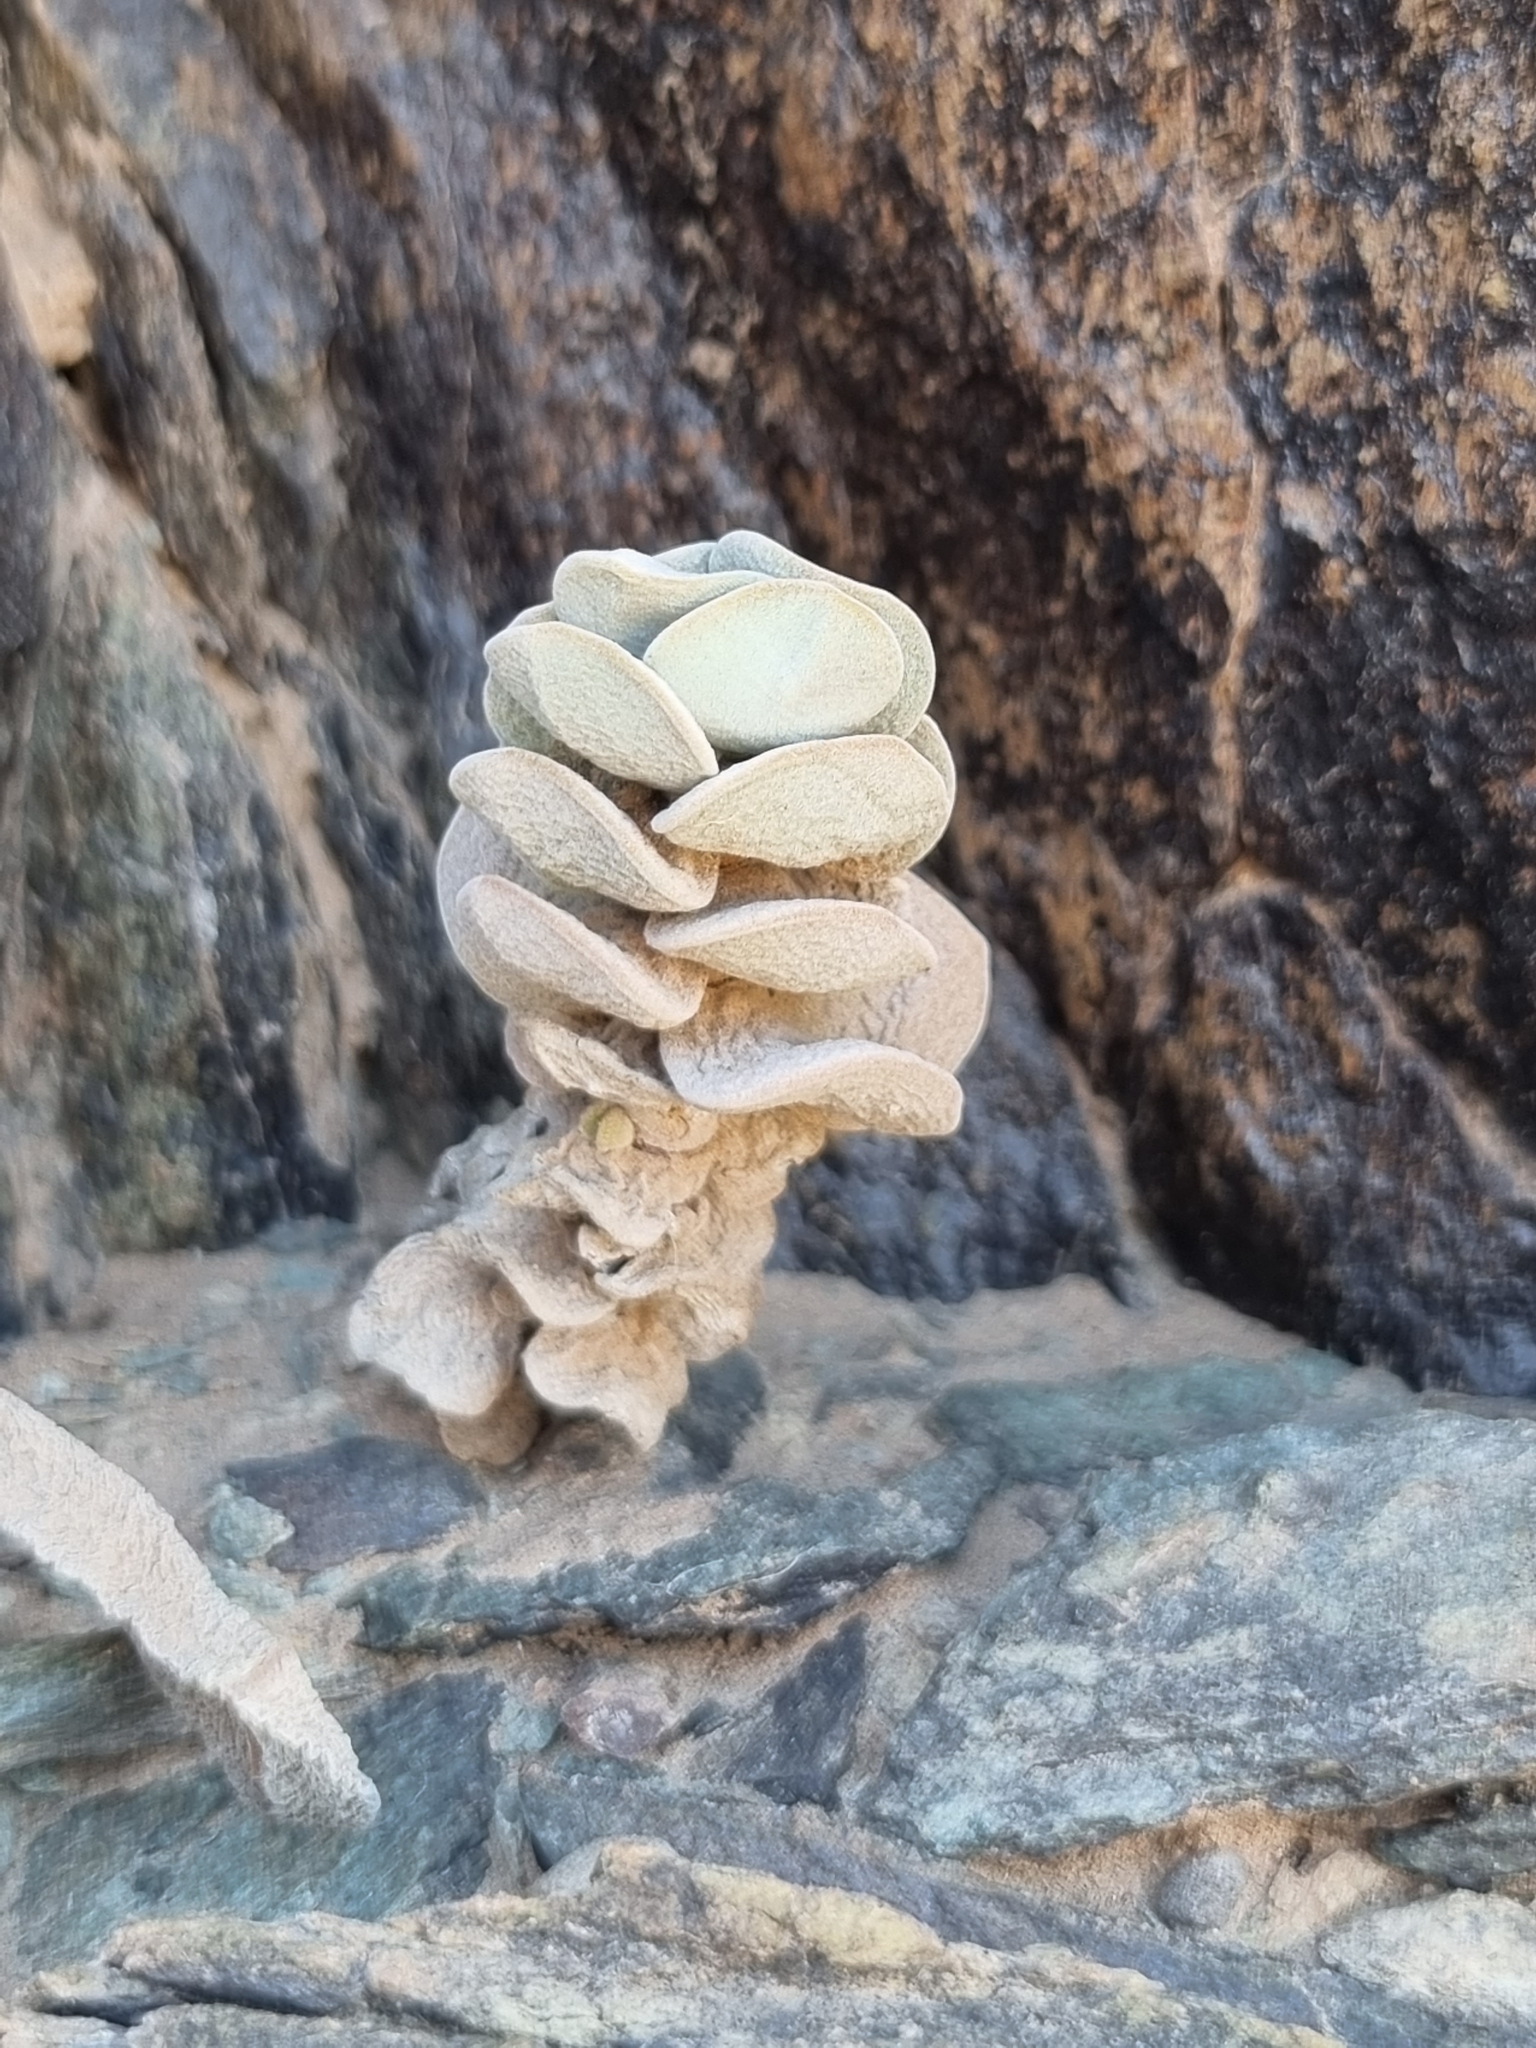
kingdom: Plantae
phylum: Tracheophyta
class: Magnoliopsida
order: Saxifragales
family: Crassulaceae
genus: Crassula
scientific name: Crassula sericea
